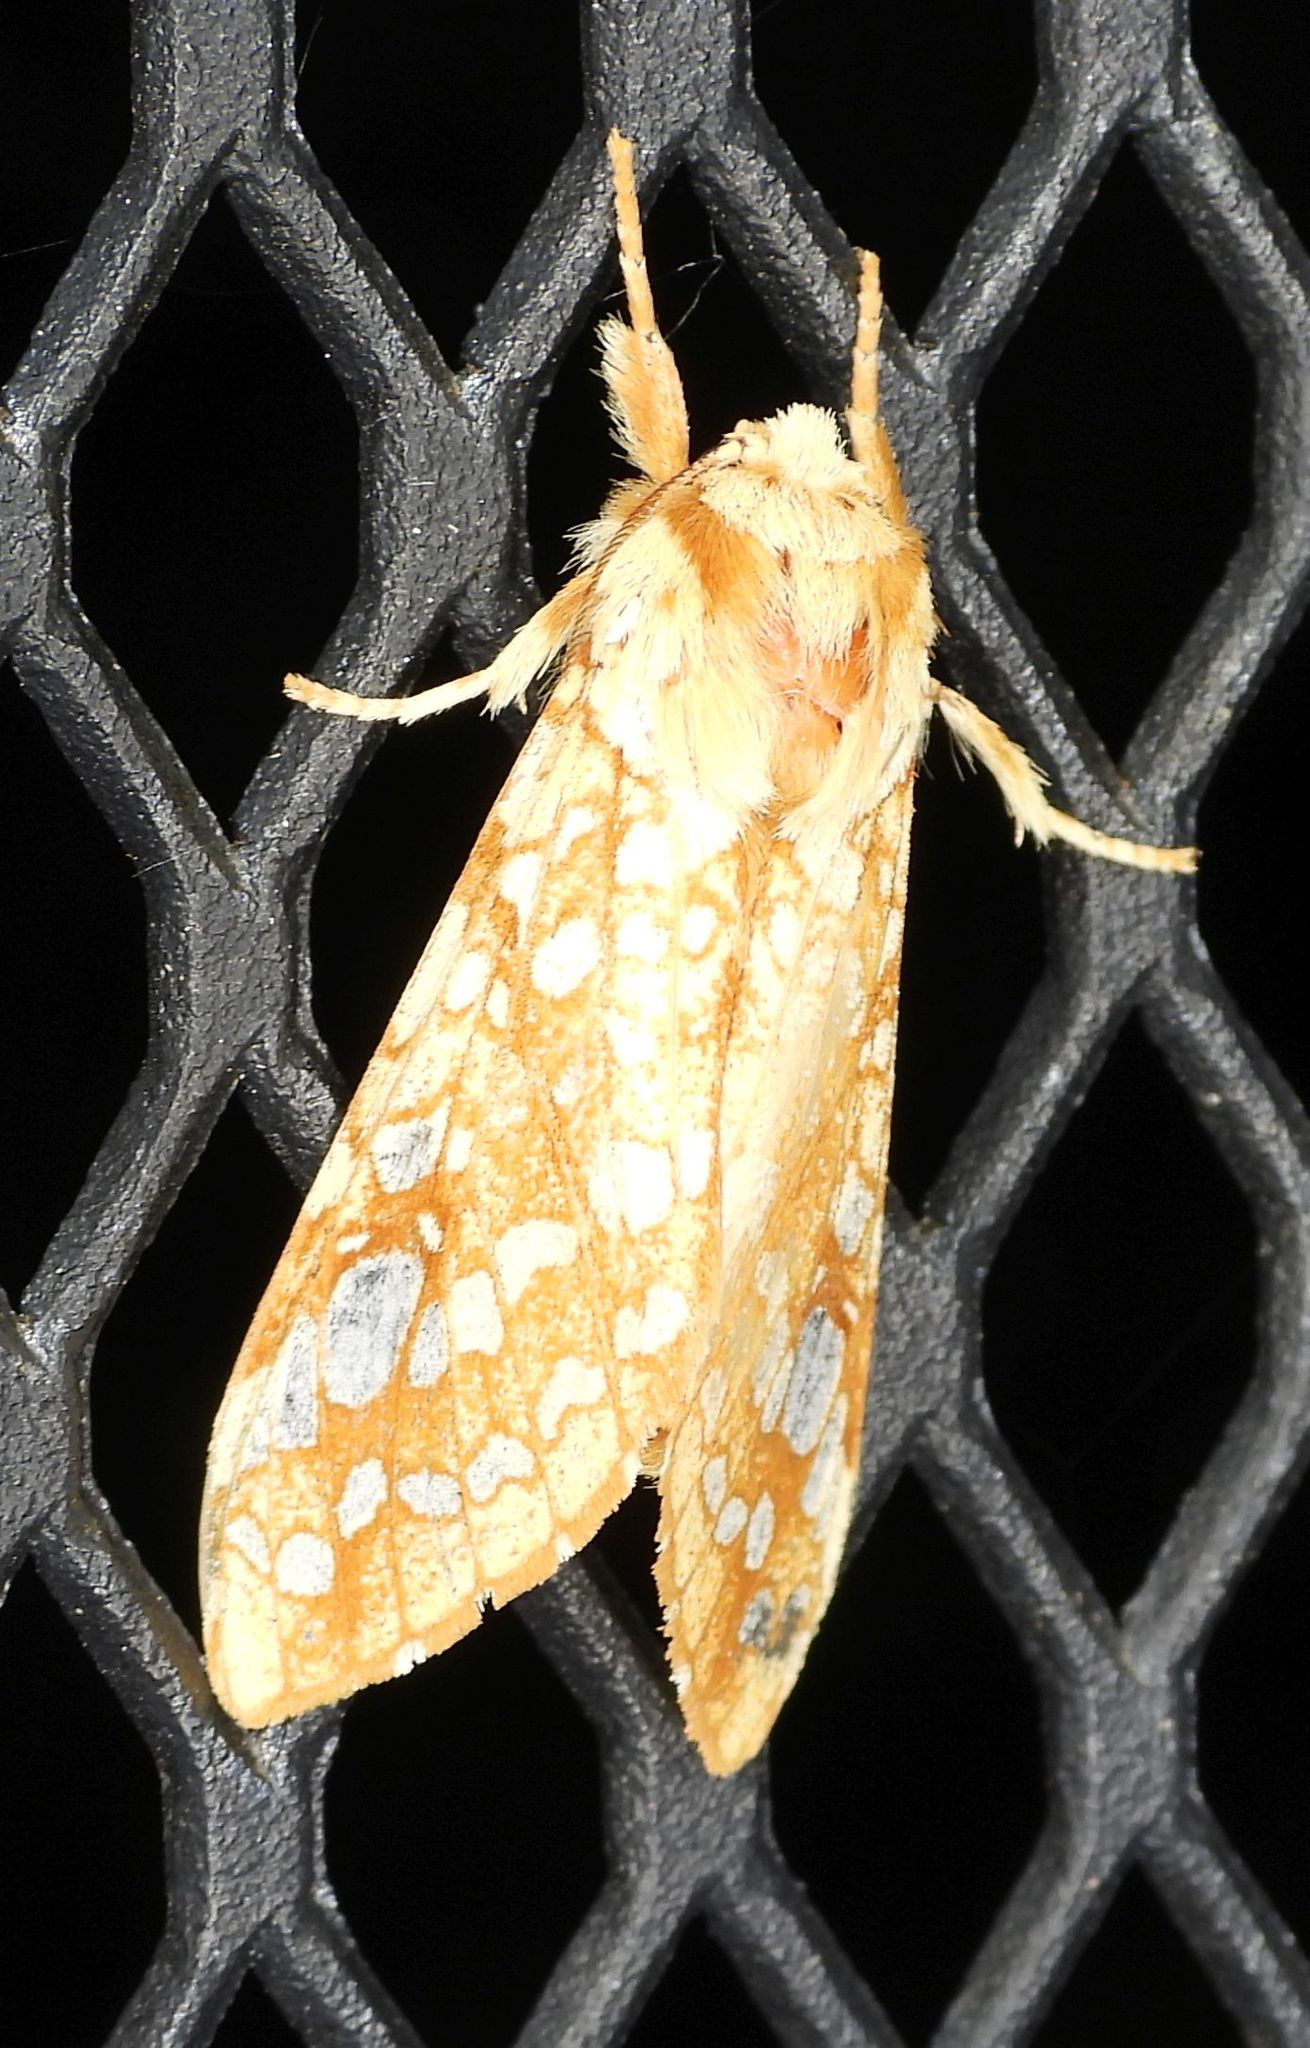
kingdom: Animalia
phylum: Arthropoda
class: Insecta
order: Lepidoptera
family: Erebidae
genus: Lophocampa
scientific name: Lophocampa caryae
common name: Hickory tussock moth
